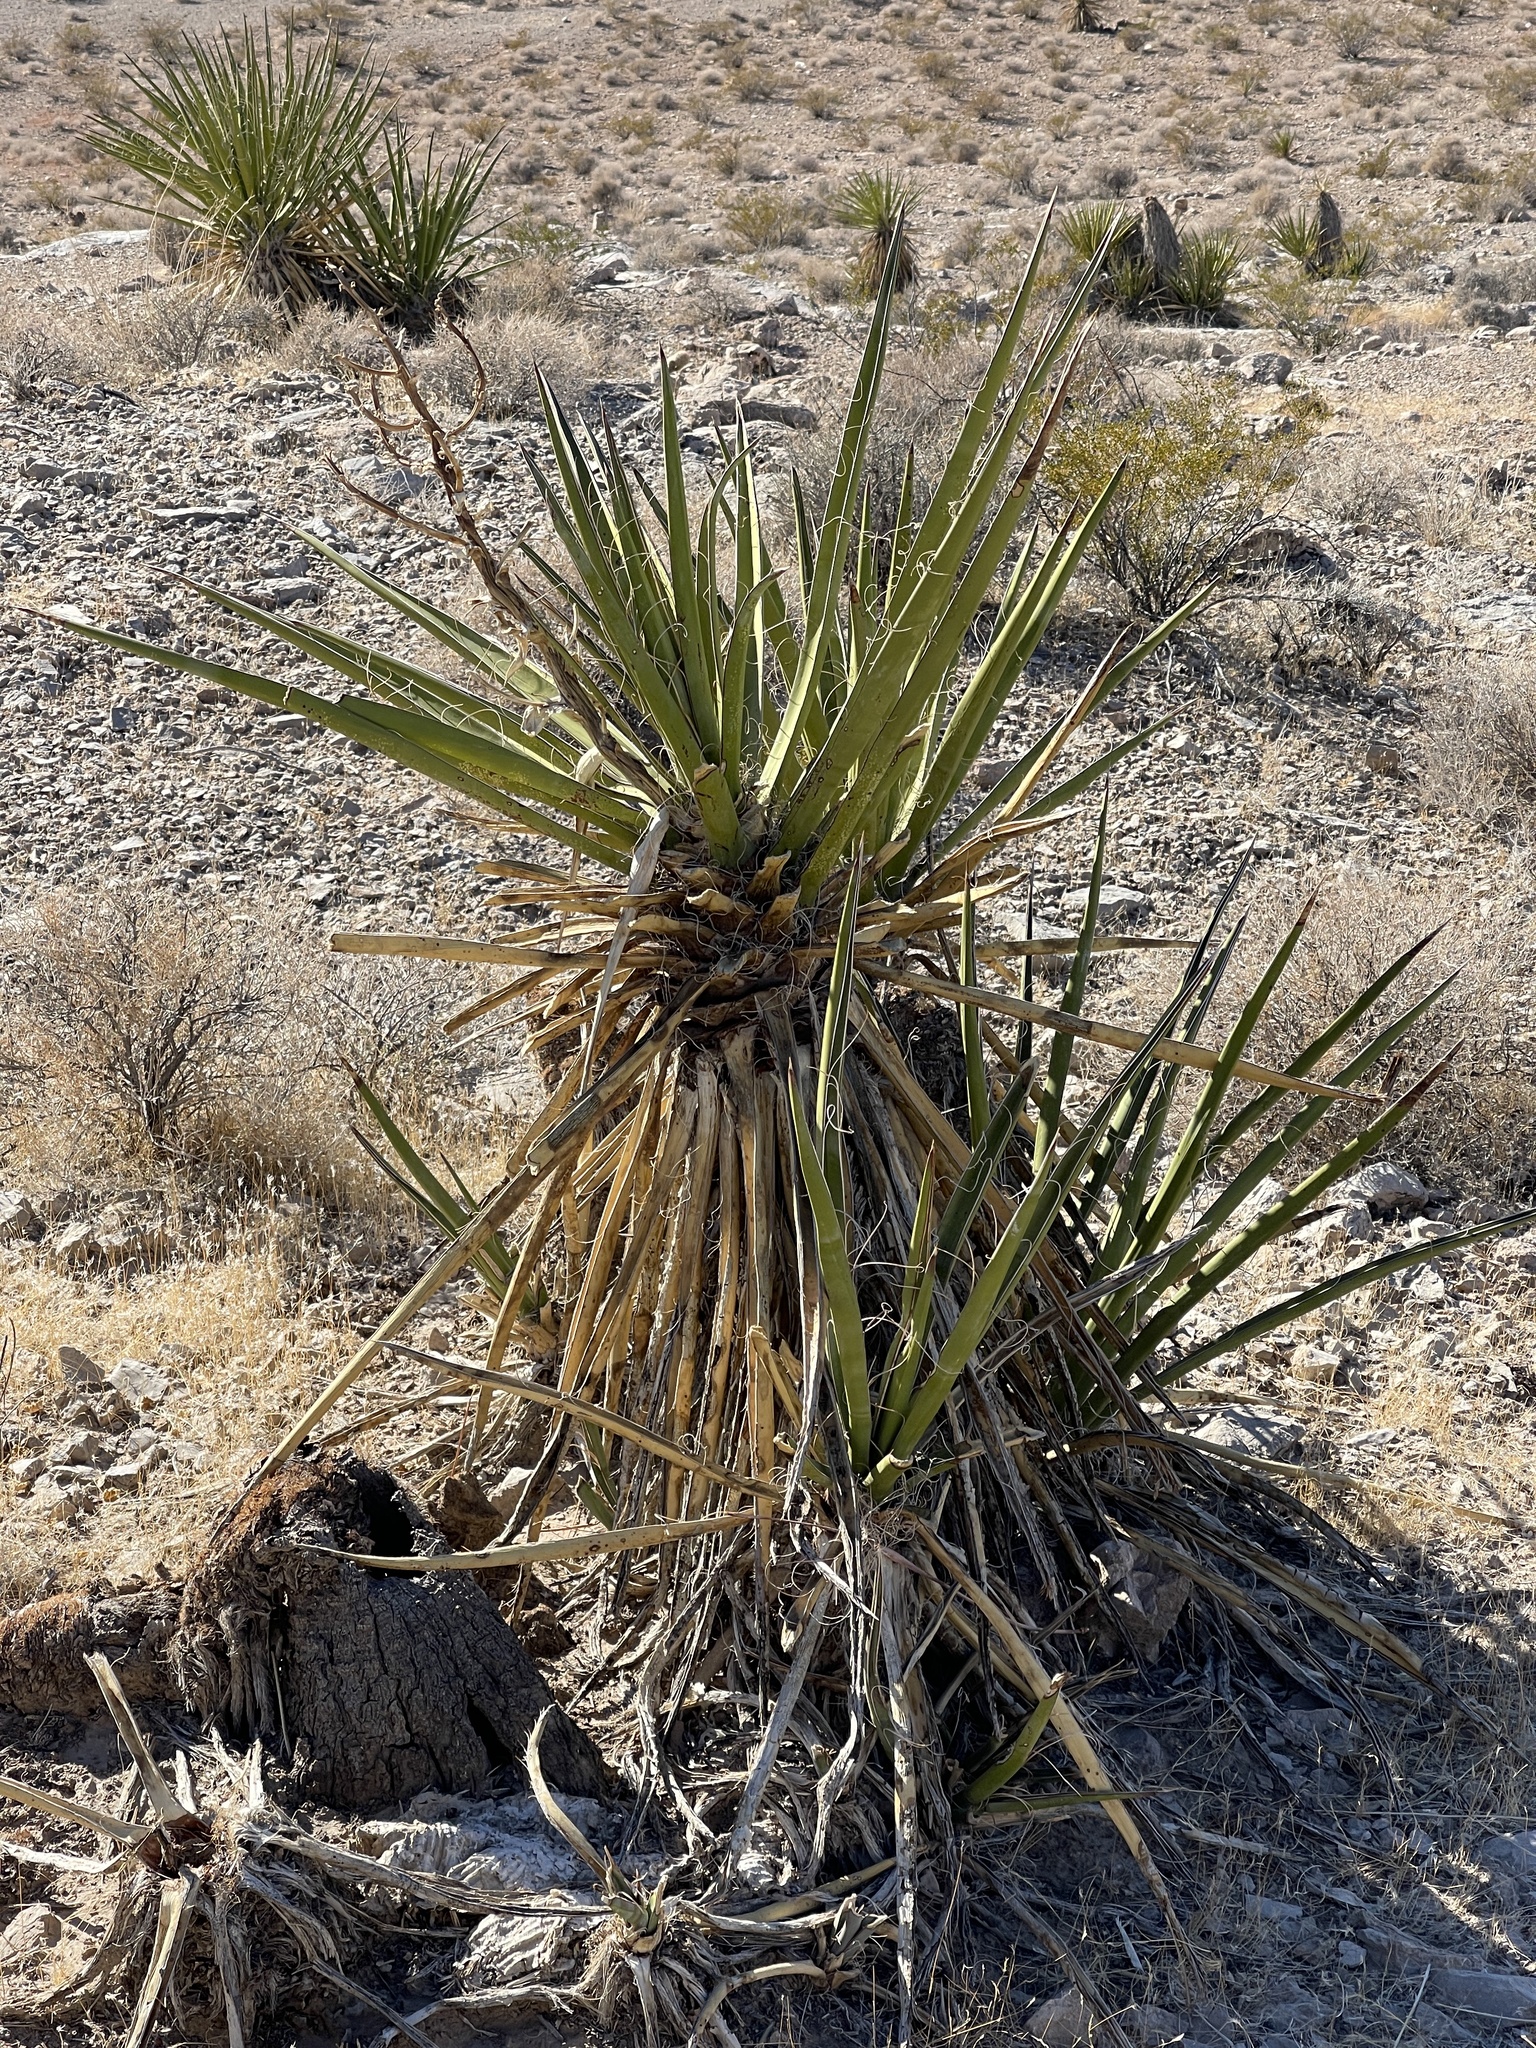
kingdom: Plantae
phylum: Tracheophyta
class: Liliopsida
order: Asparagales
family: Asparagaceae
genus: Yucca
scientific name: Yucca schidigera
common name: Mojave yucca
